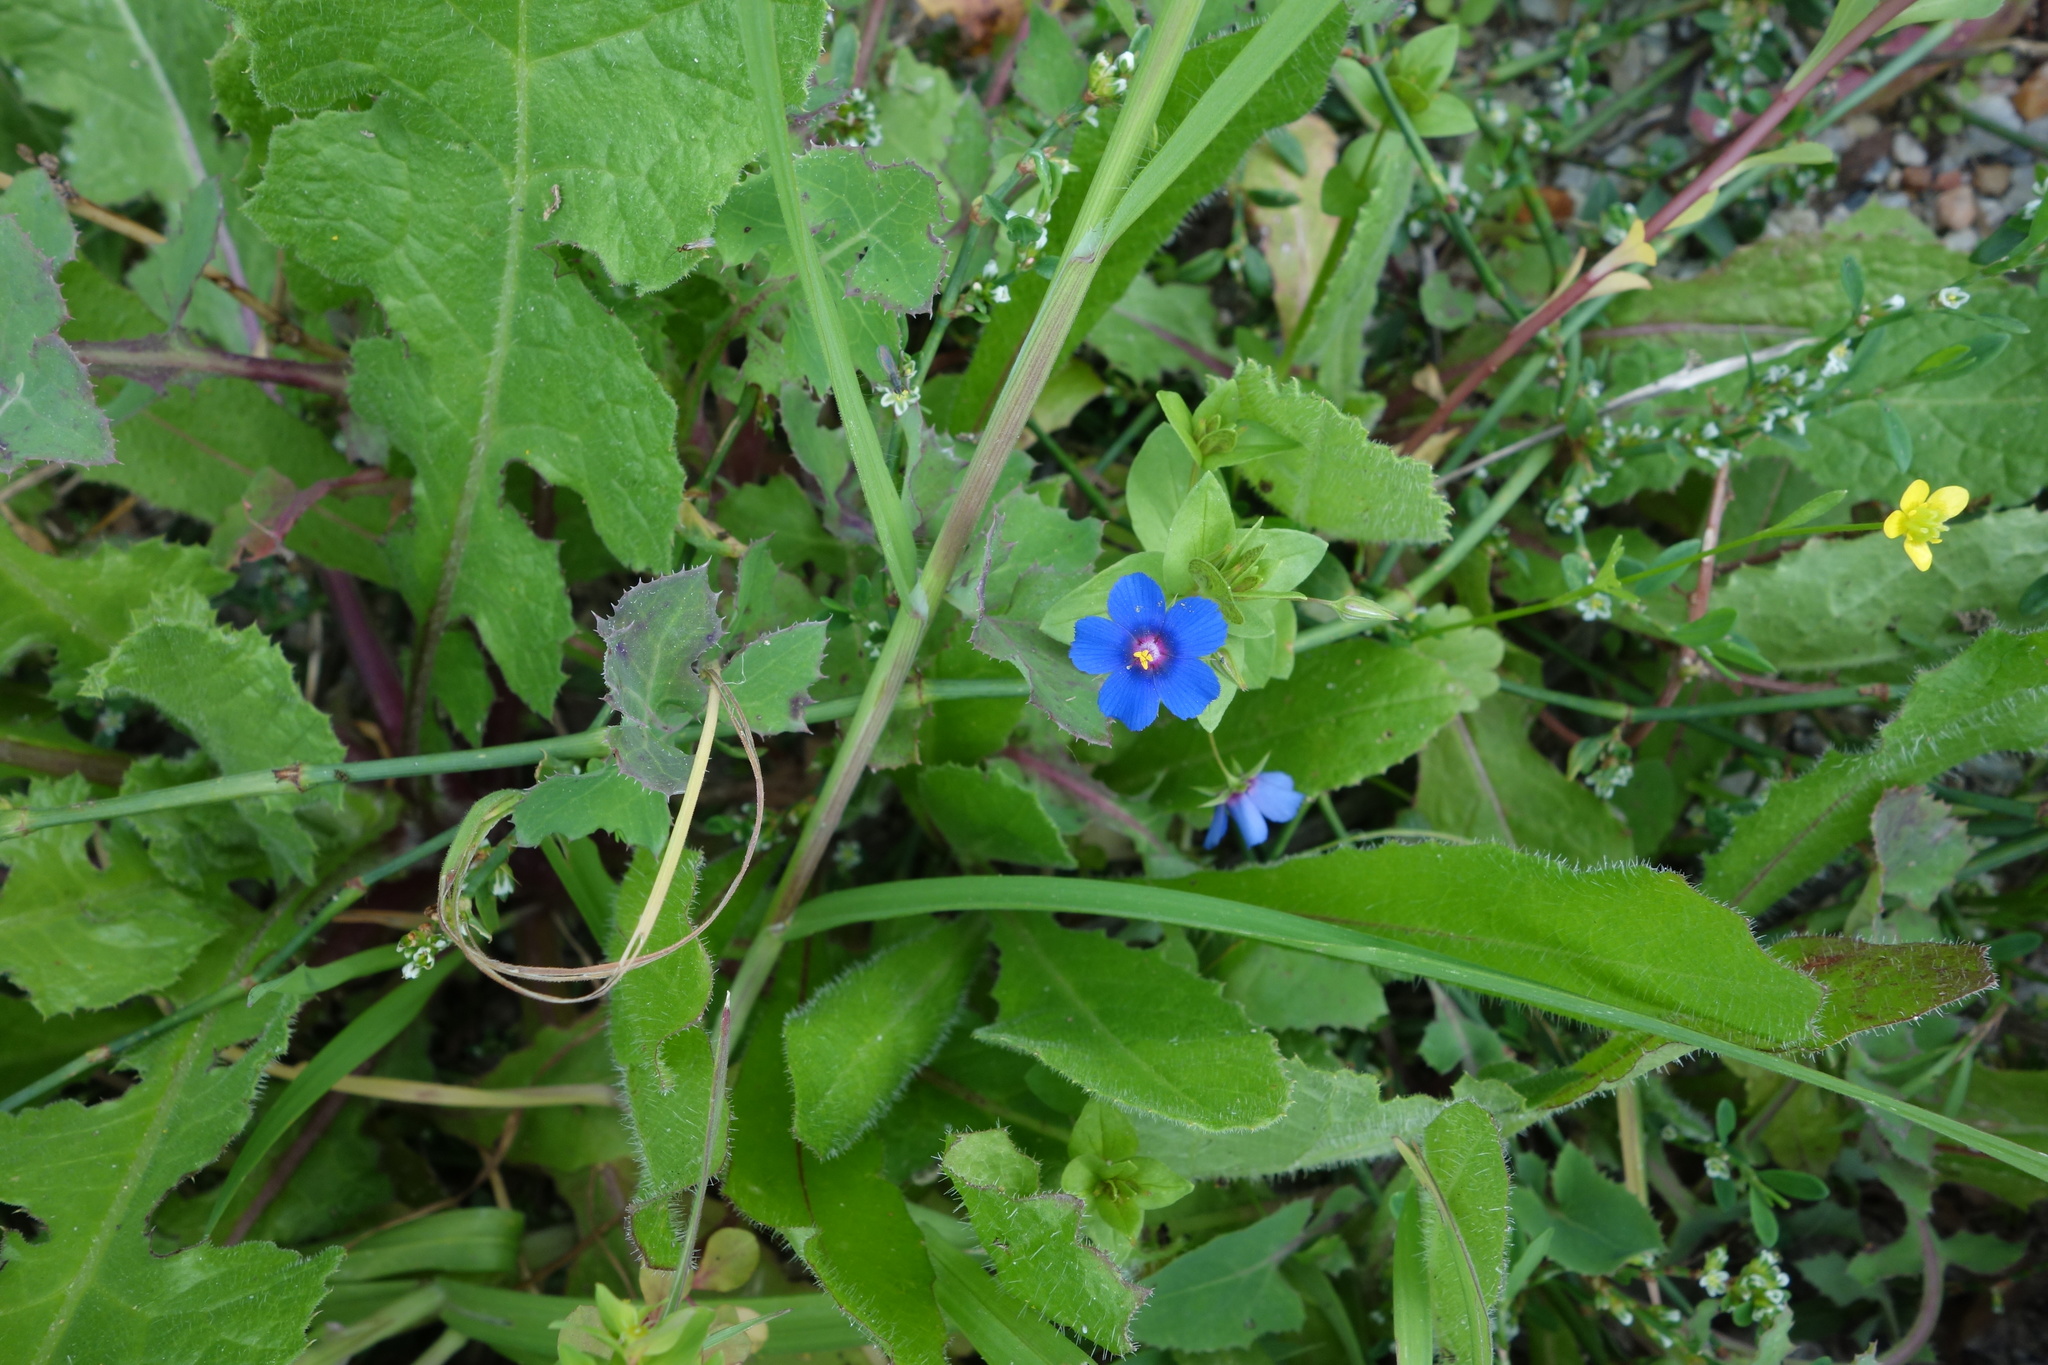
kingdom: Plantae
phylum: Tracheophyta
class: Magnoliopsida
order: Ericales
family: Primulaceae
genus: Lysimachia
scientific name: Lysimachia arvensis
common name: Scarlet pimpernel
